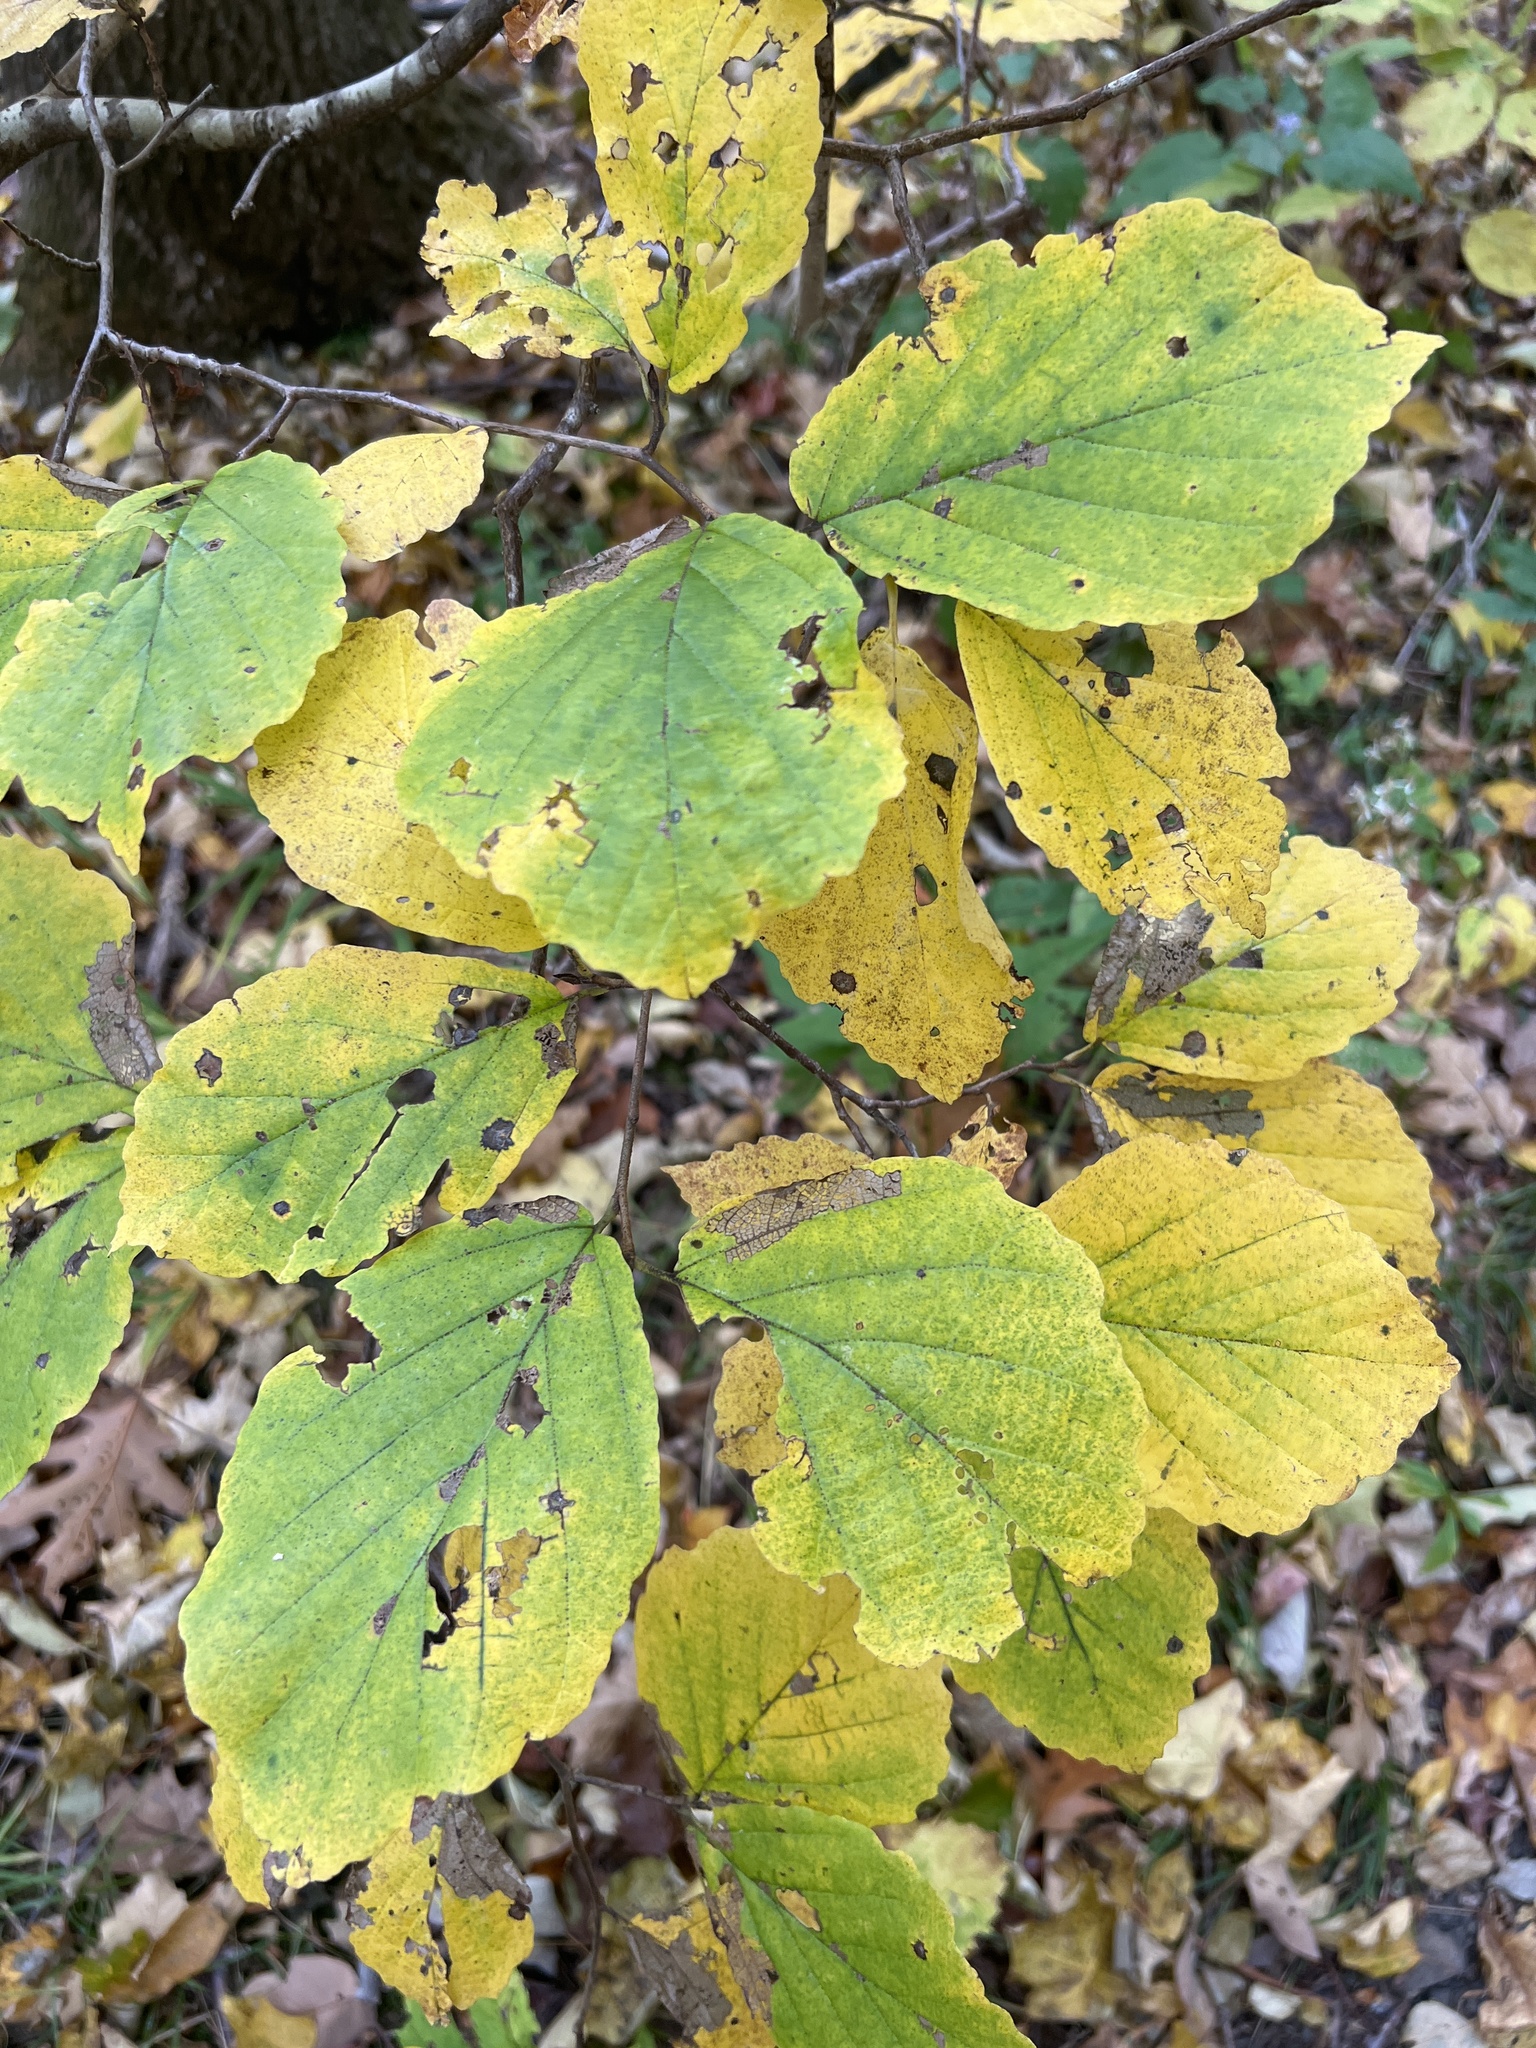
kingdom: Plantae
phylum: Tracheophyta
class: Magnoliopsida
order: Saxifragales
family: Hamamelidaceae
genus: Hamamelis
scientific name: Hamamelis virginiana
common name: Witch-hazel
